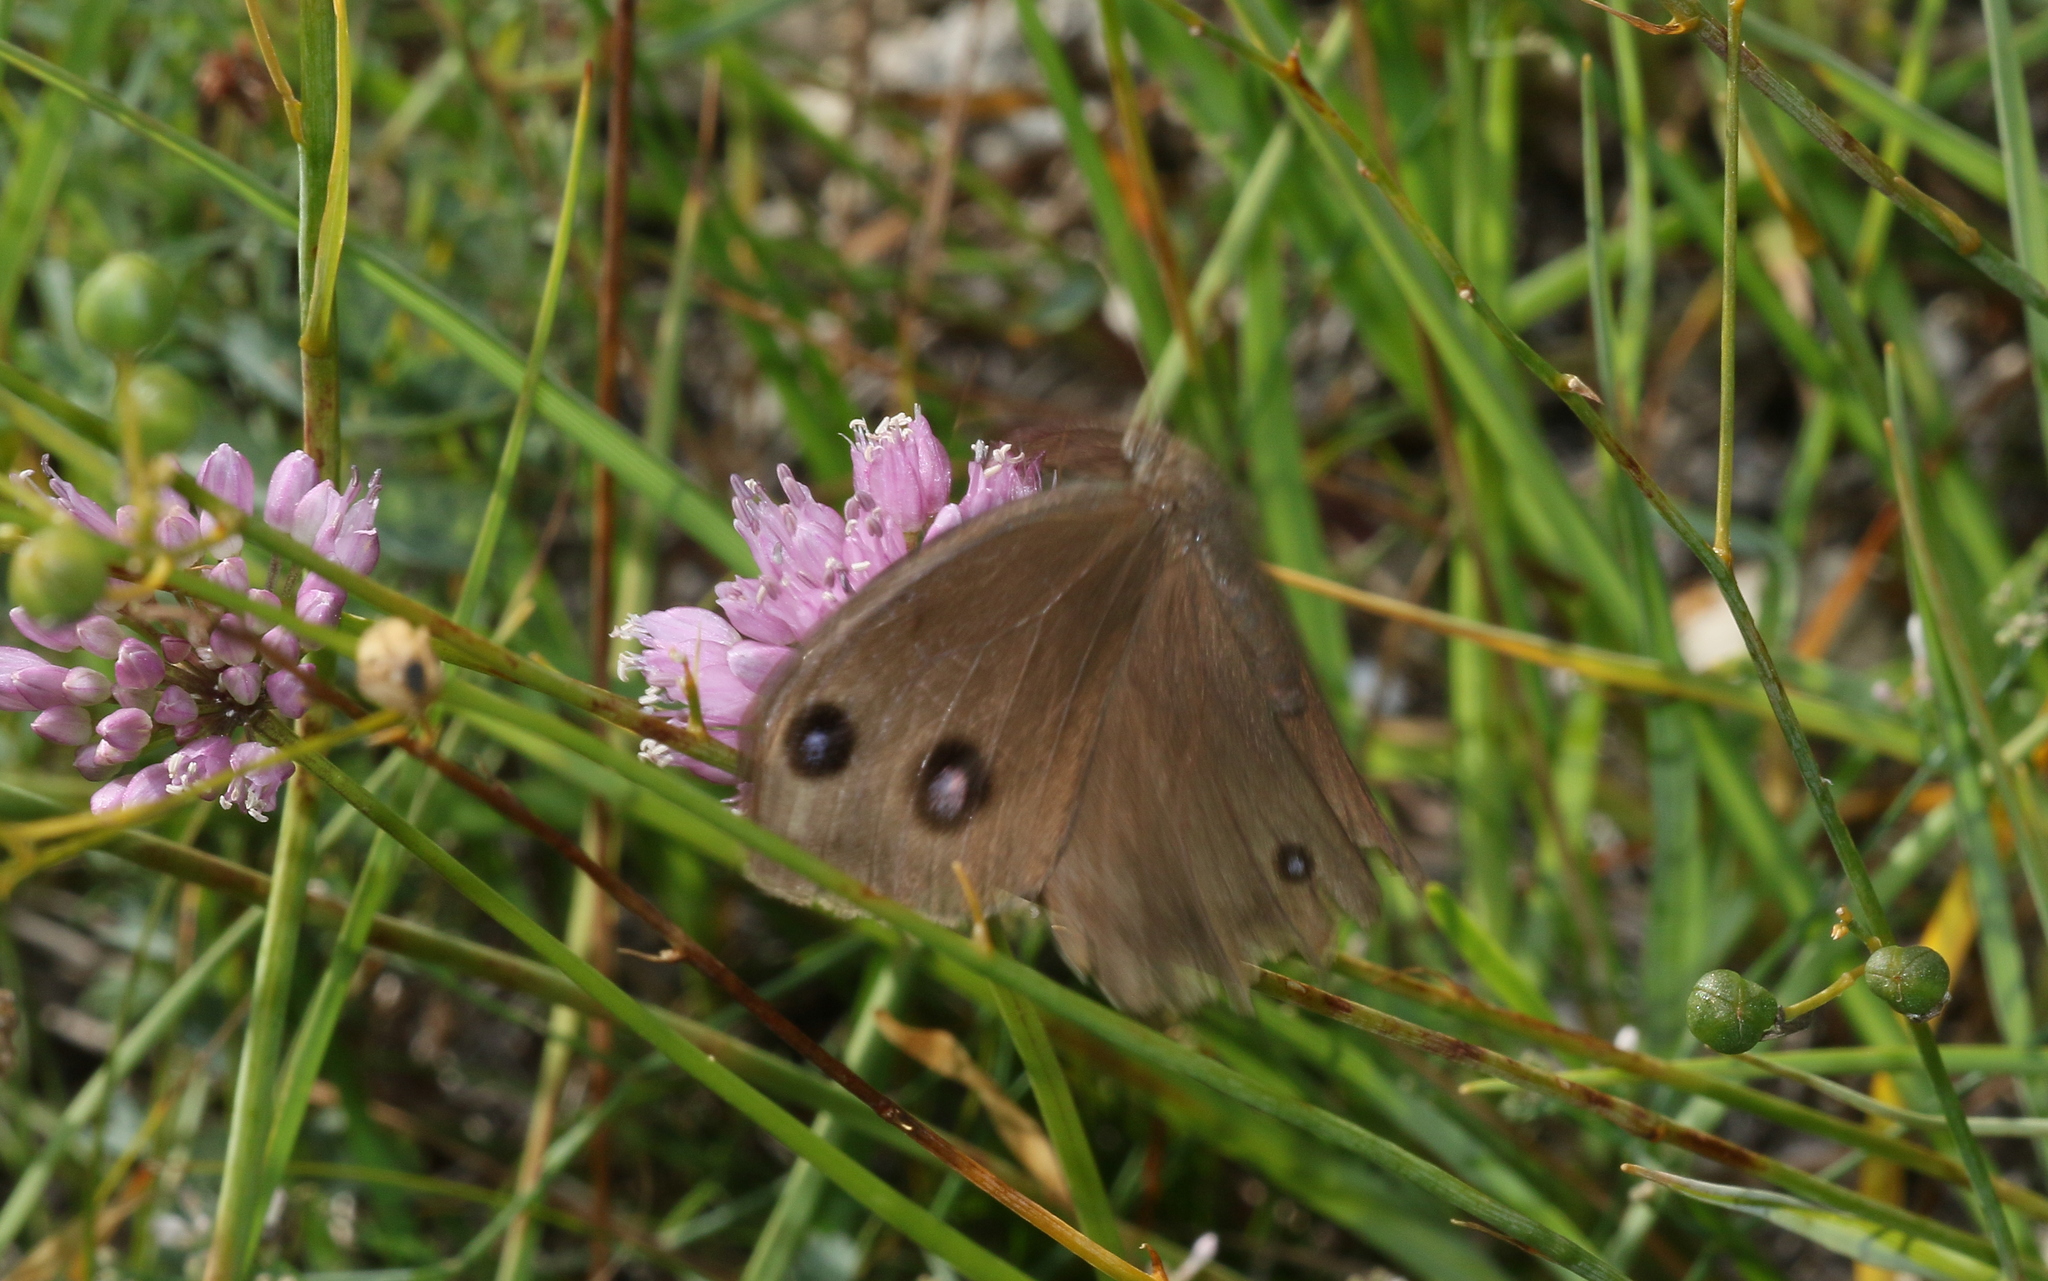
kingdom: Animalia
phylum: Arthropoda
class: Insecta
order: Lepidoptera
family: Nymphalidae
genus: Minois
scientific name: Minois dryas
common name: Dryad
